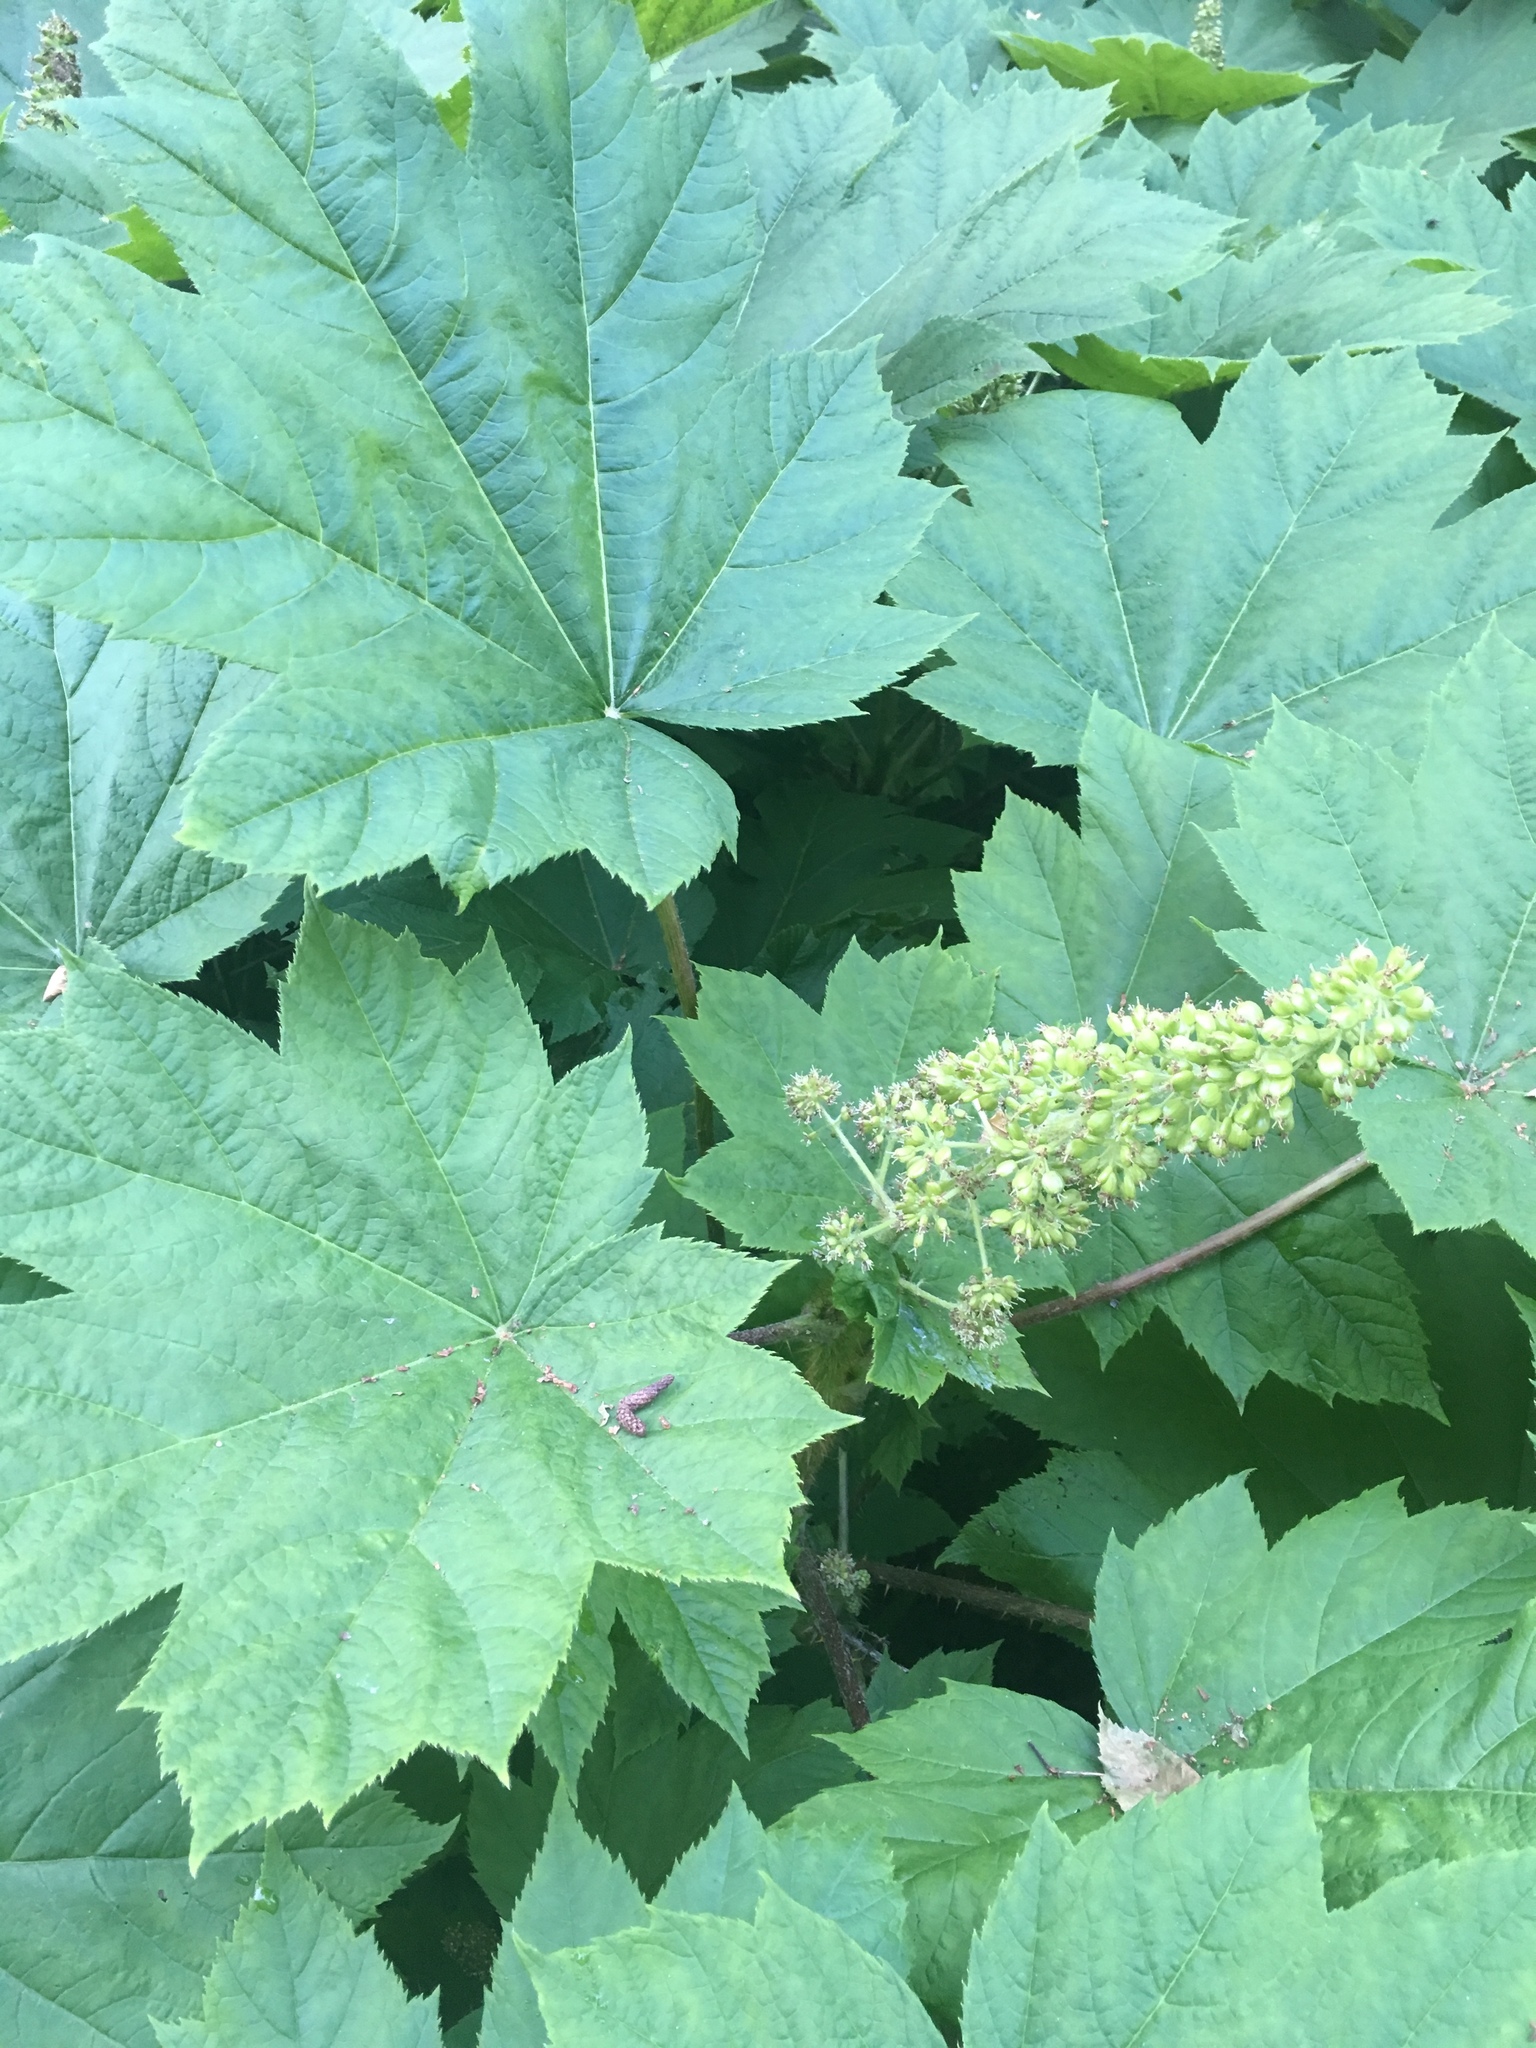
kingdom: Plantae
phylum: Tracheophyta
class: Magnoliopsida
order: Apiales
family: Araliaceae
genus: Oplopanax
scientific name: Oplopanax horridus
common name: Devil's walking-stick
